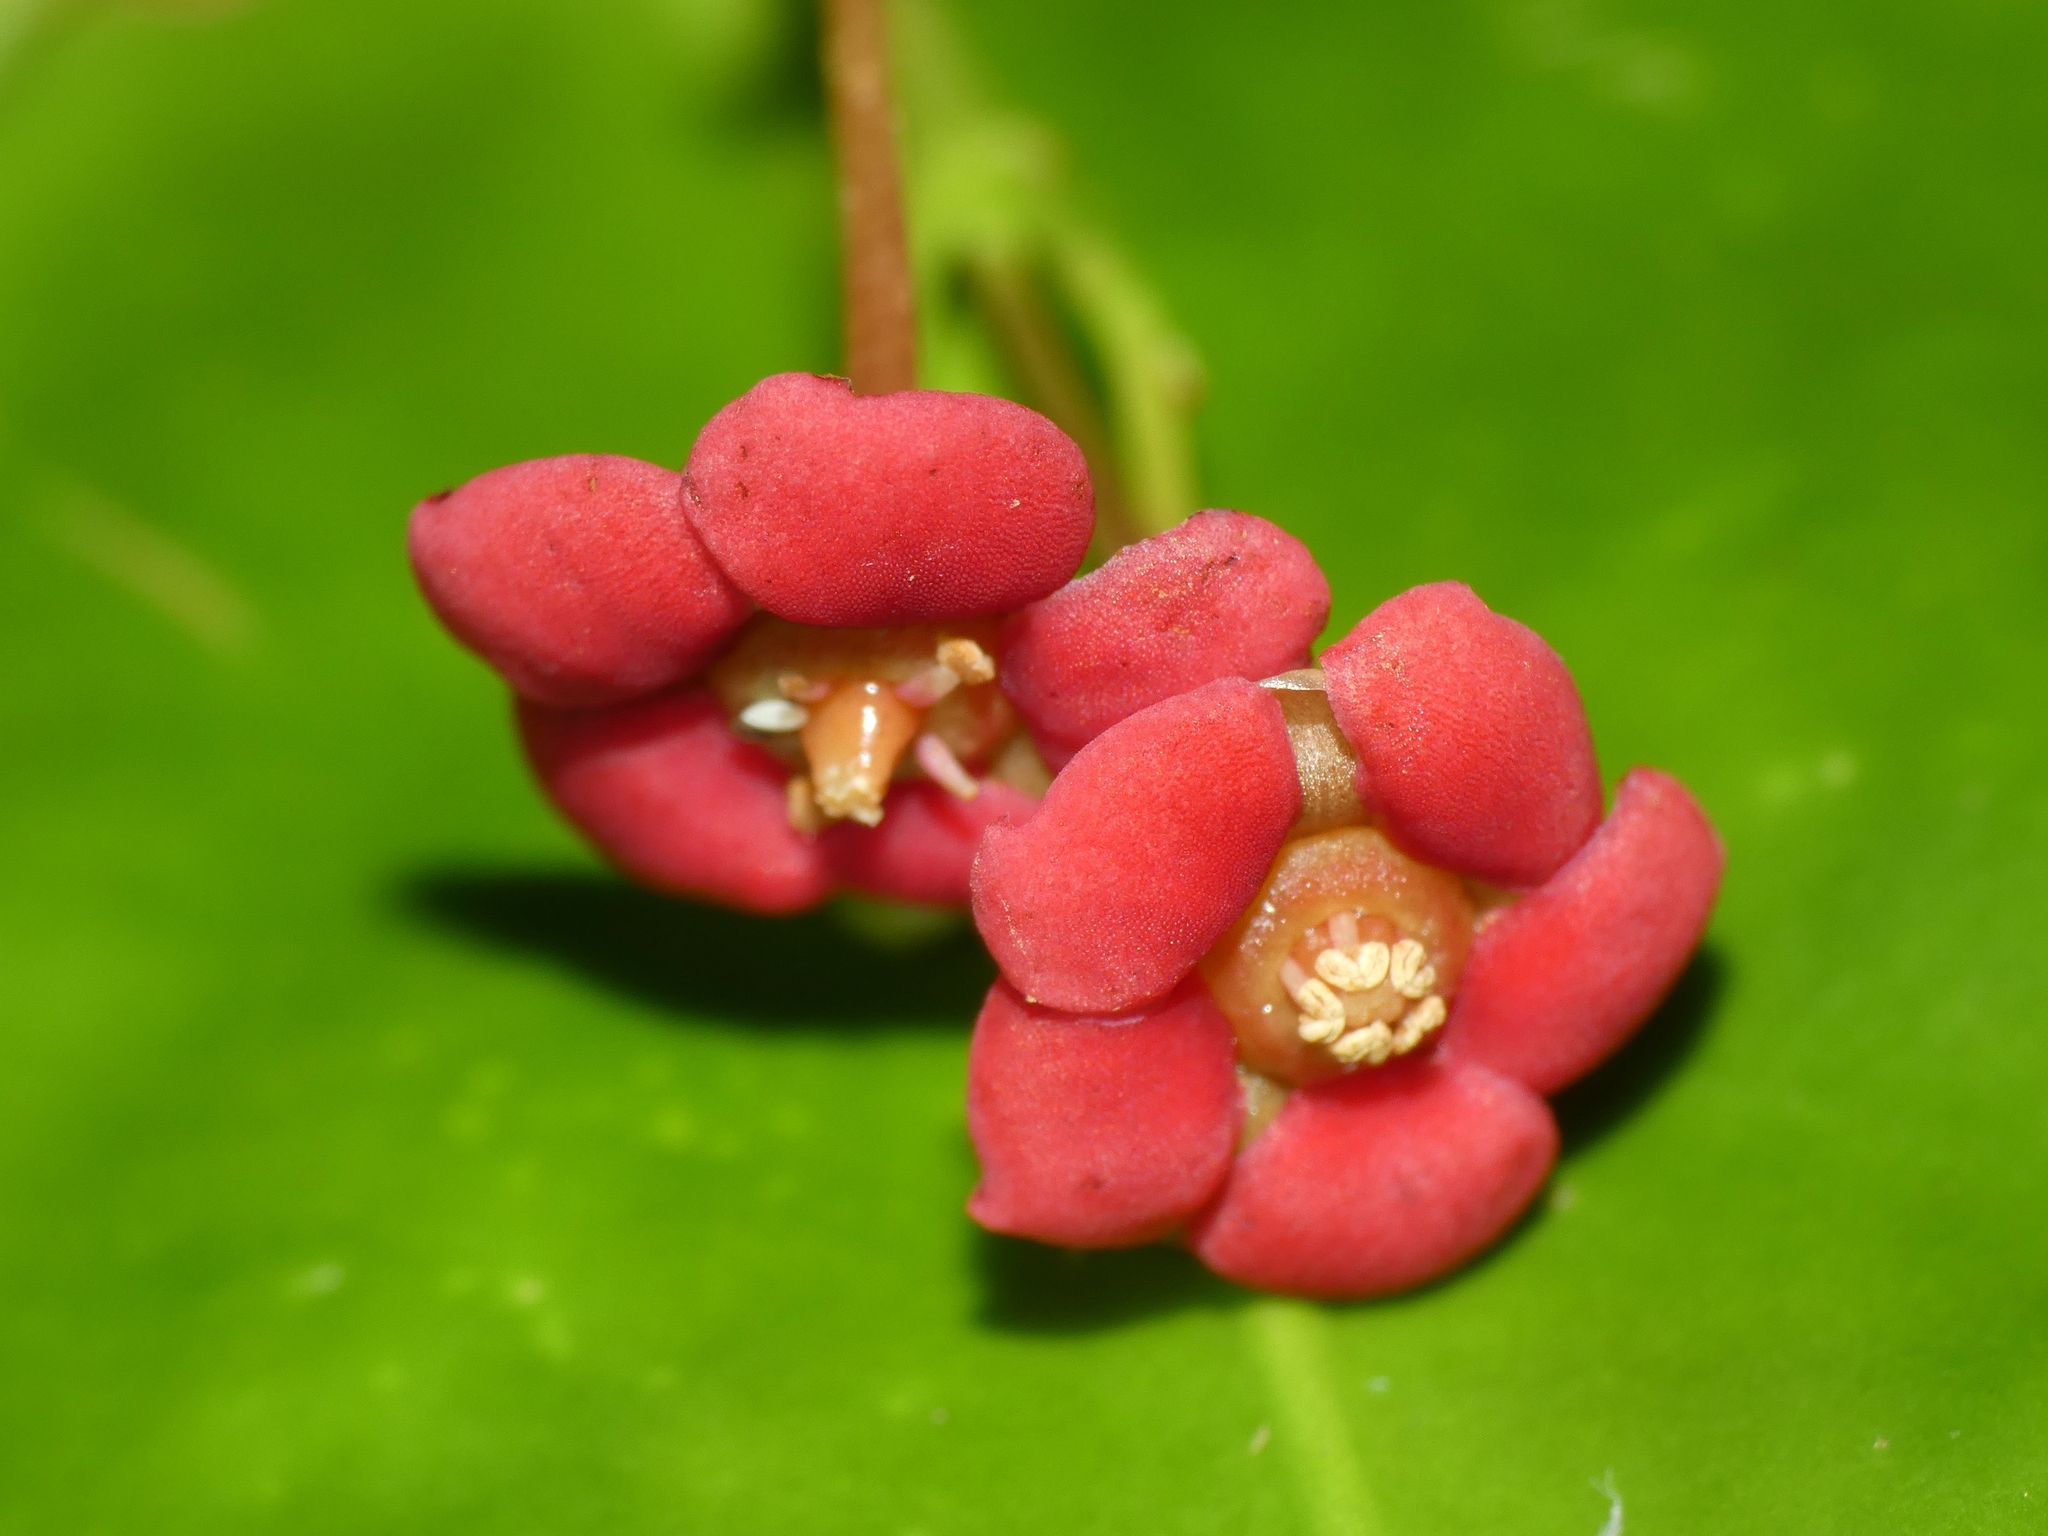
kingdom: Plantae
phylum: Tracheophyta
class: Magnoliopsida
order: Celastrales
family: Celastraceae
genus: Hypsophila
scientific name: Hypsophila dielsiana
